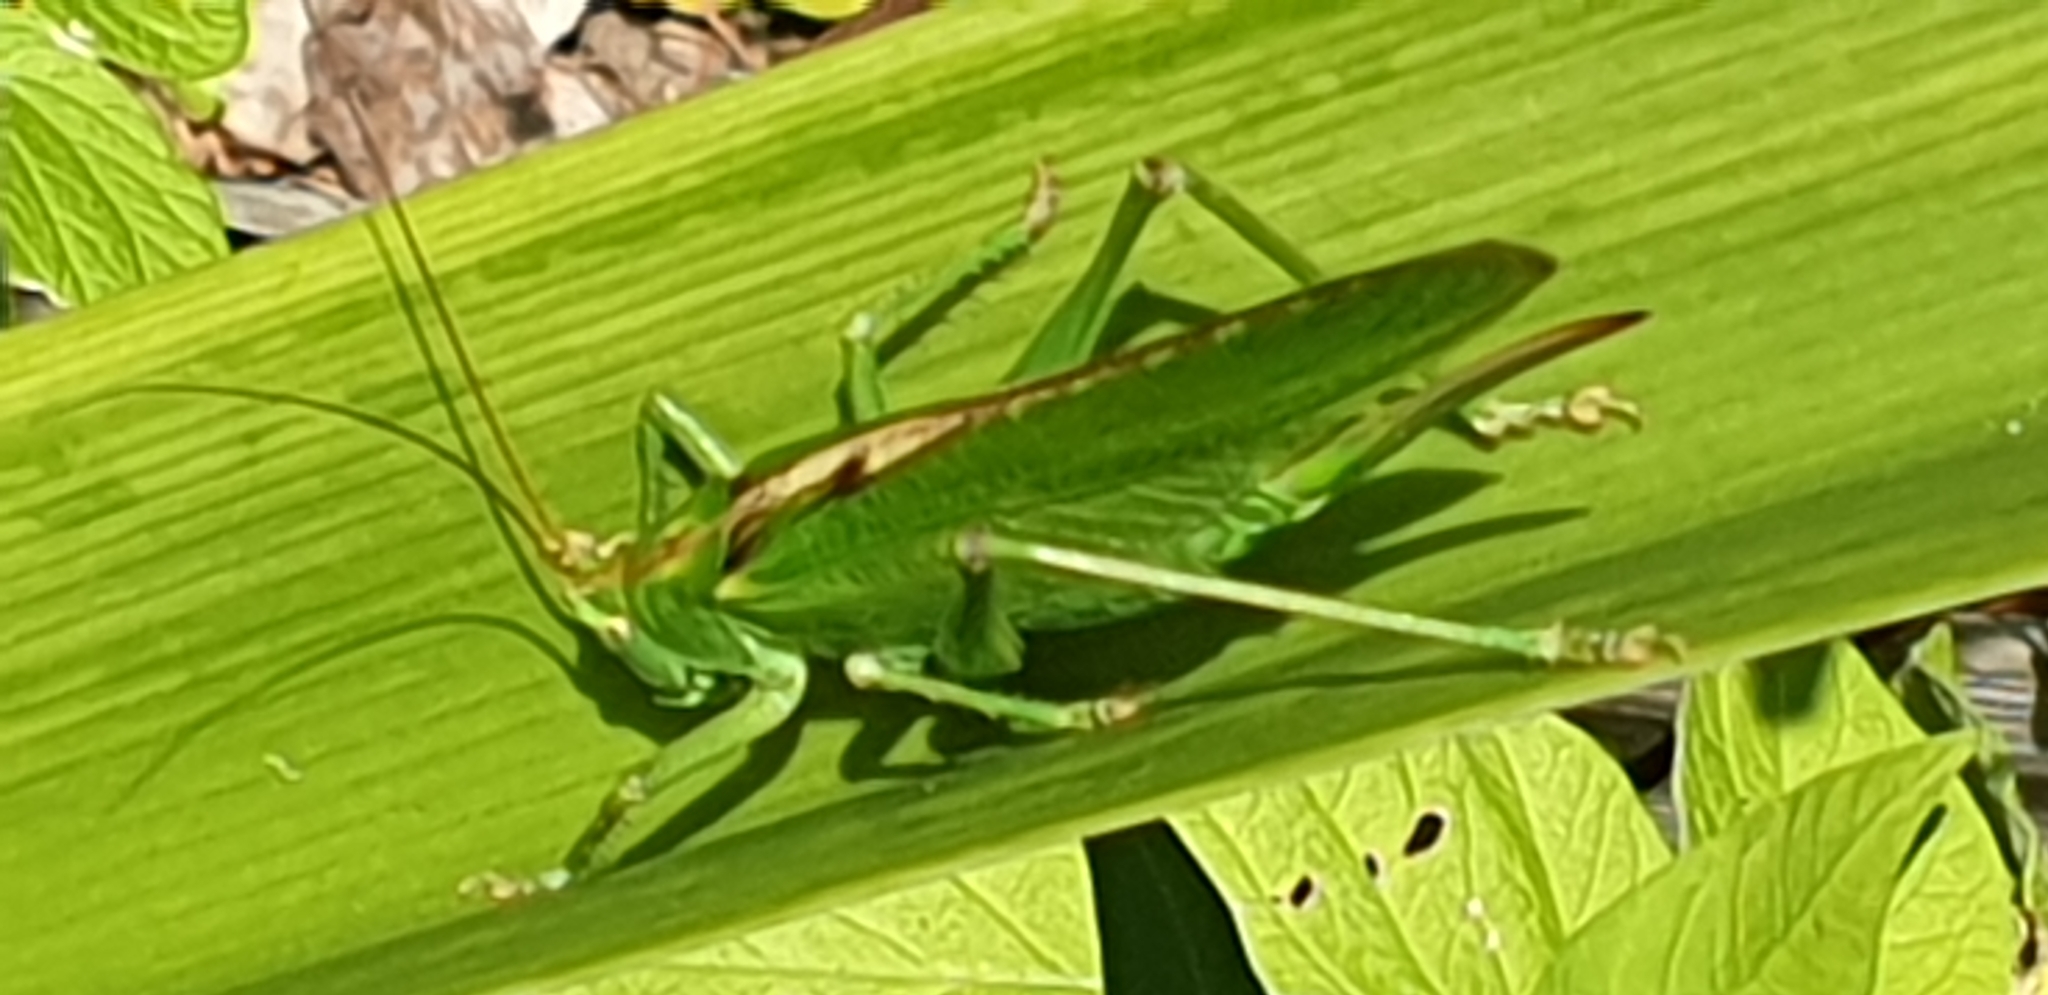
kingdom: Animalia
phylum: Arthropoda
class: Insecta
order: Orthoptera
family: Tettigoniidae
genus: Tettigonia
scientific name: Tettigonia viridissima
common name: Great green bush-cricket
